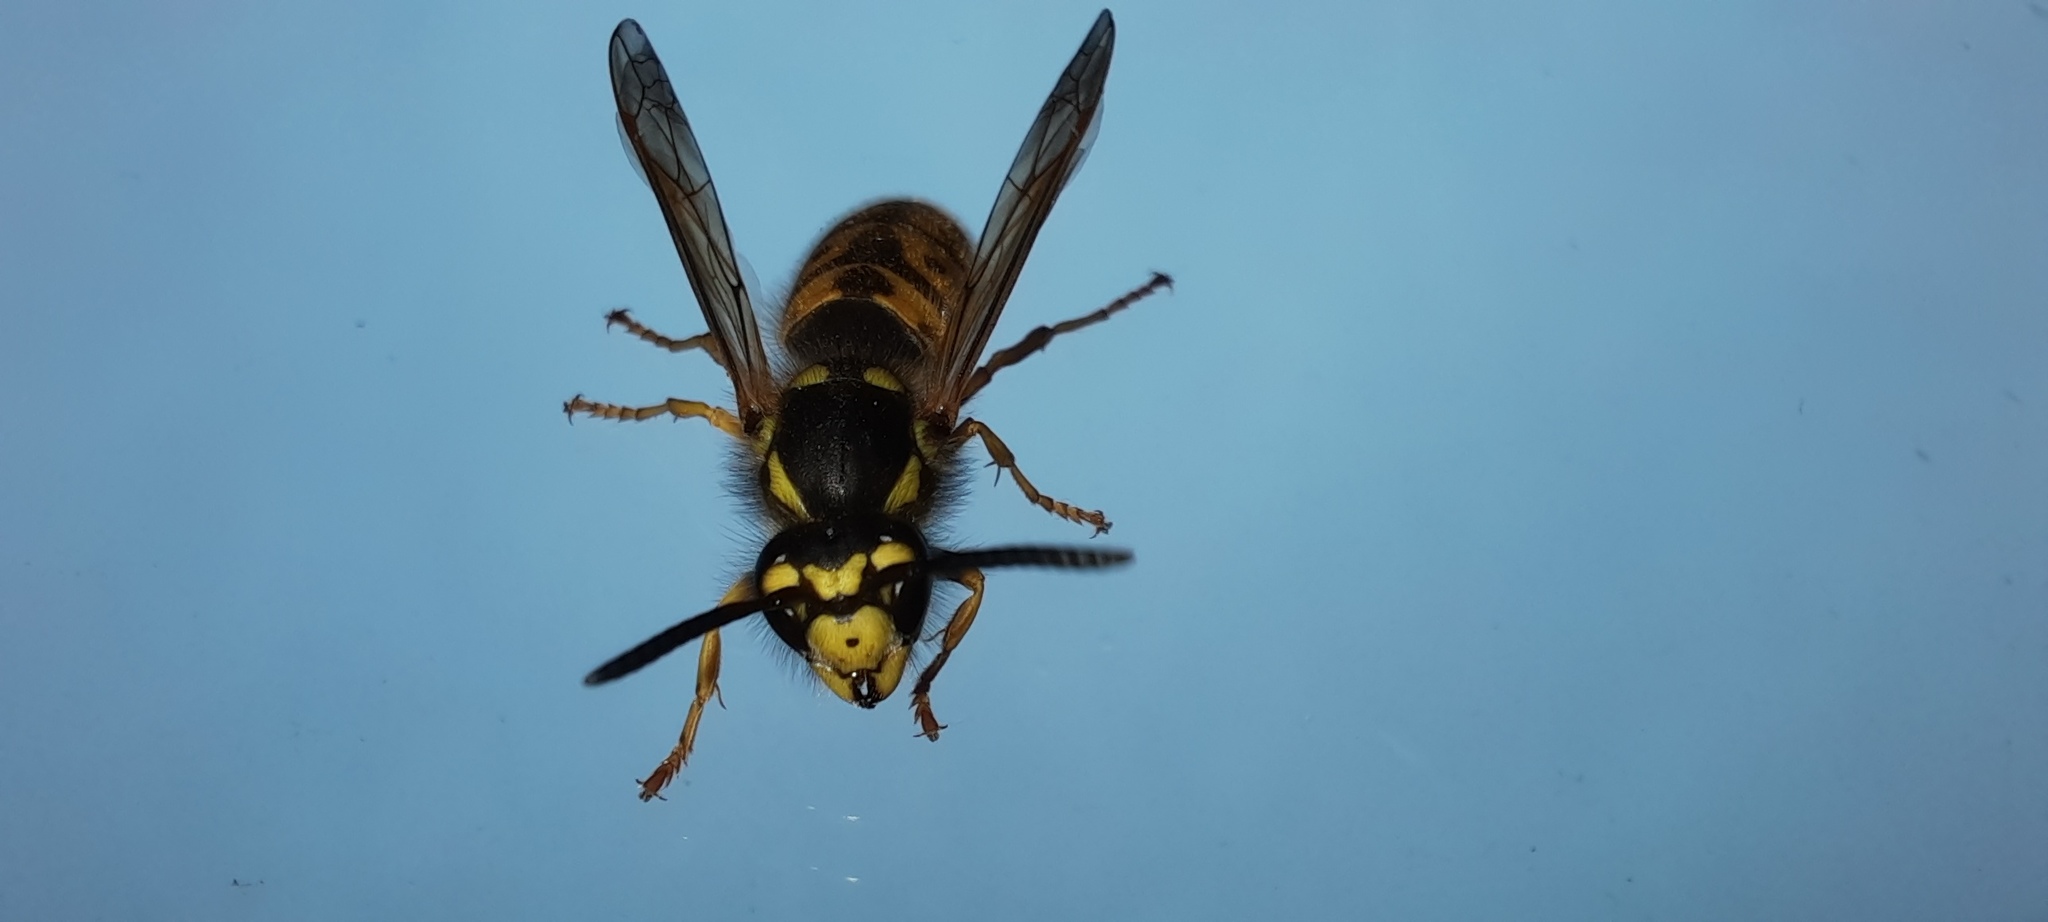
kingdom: Animalia
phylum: Arthropoda
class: Insecta
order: Hymenoptera
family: Vespidae
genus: Vespula
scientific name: Vespula germanica
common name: German wasp
